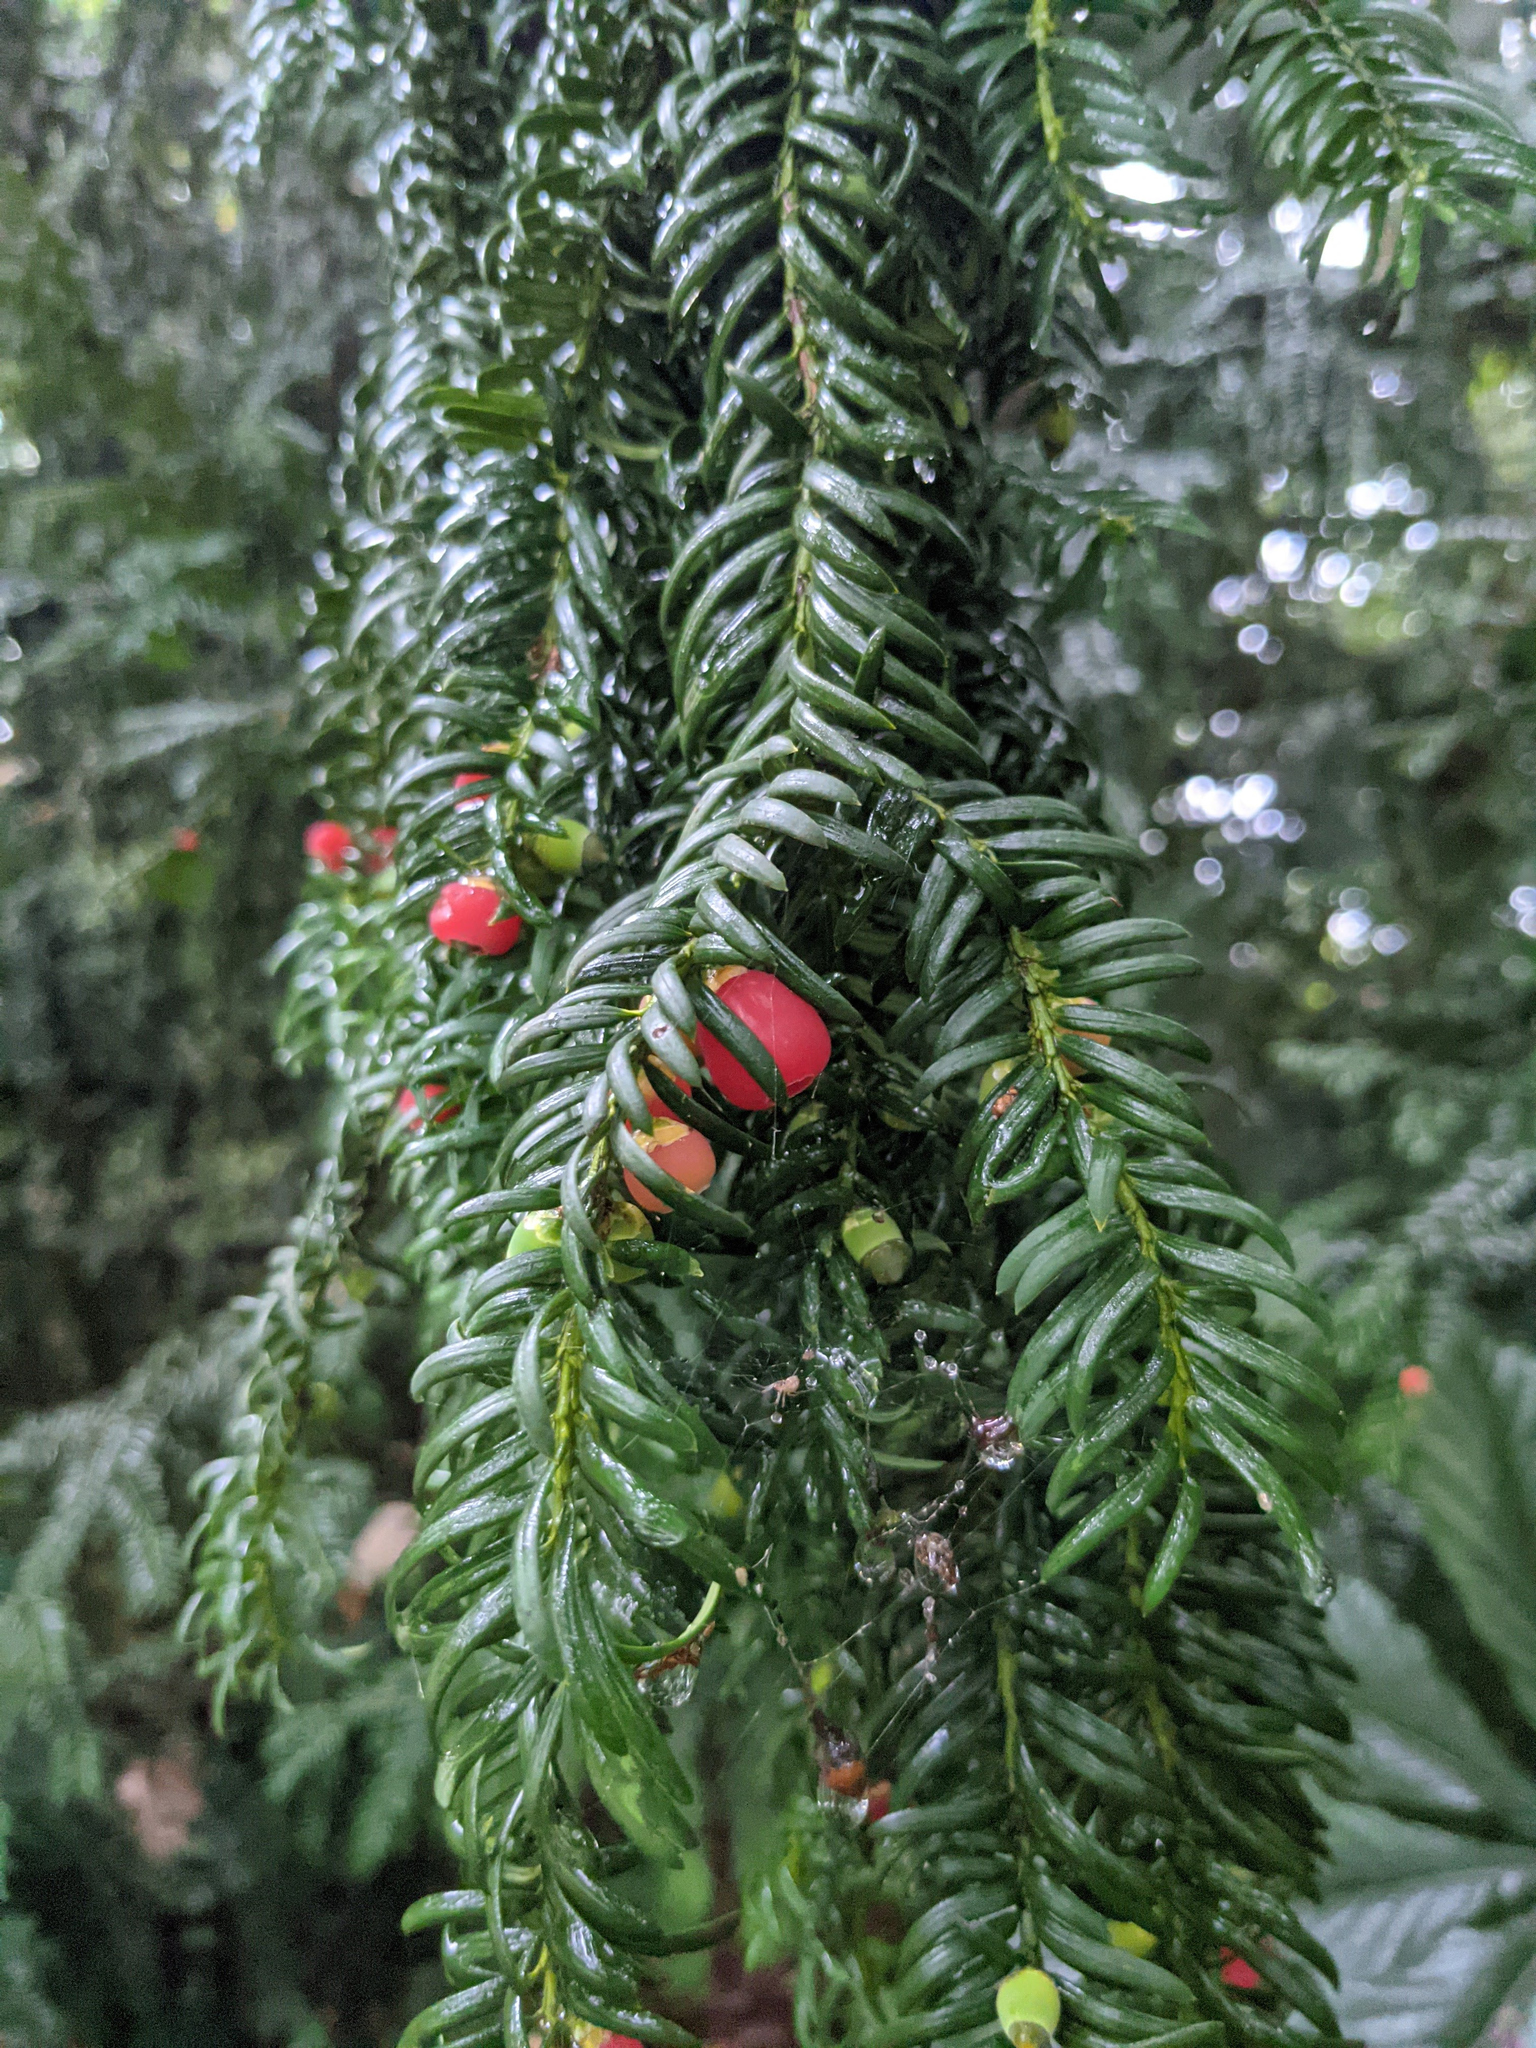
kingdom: Plantae
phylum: Tracheophyta
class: Pinopsida
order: Pinales
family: Taxaceae
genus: Taxus
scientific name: Taxus baccata
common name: Yew
